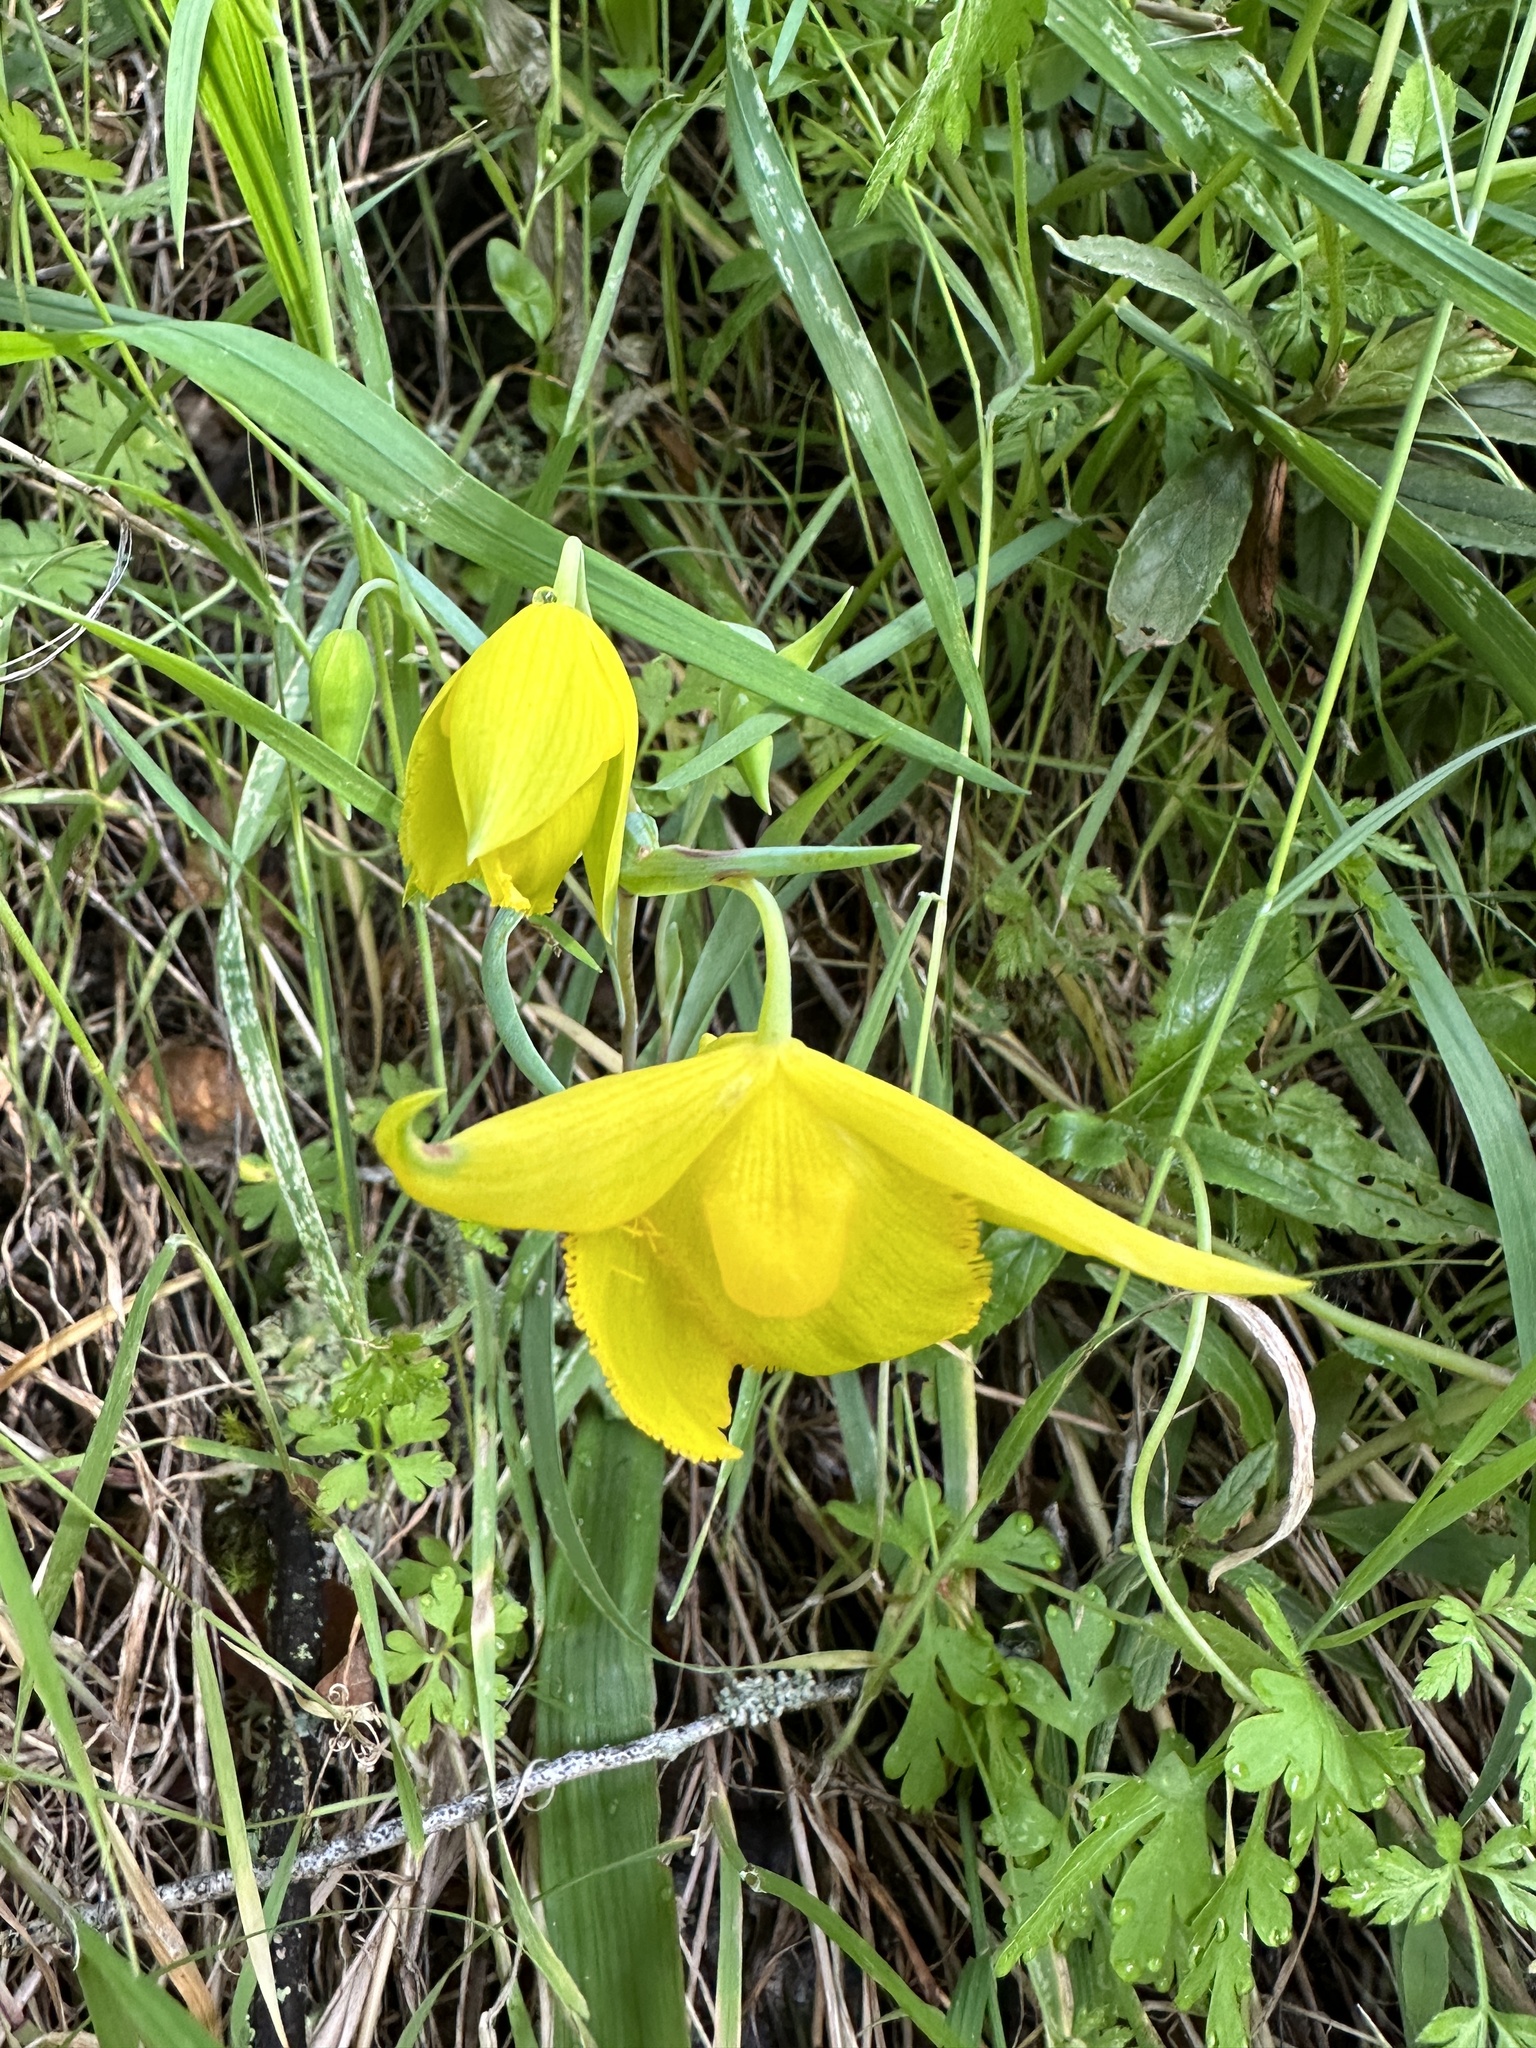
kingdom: Plantae
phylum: Tracheophyta
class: Liliopsida
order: Liliales
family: Liliaceae
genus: Calochortus
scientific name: Calochortus amabilis
